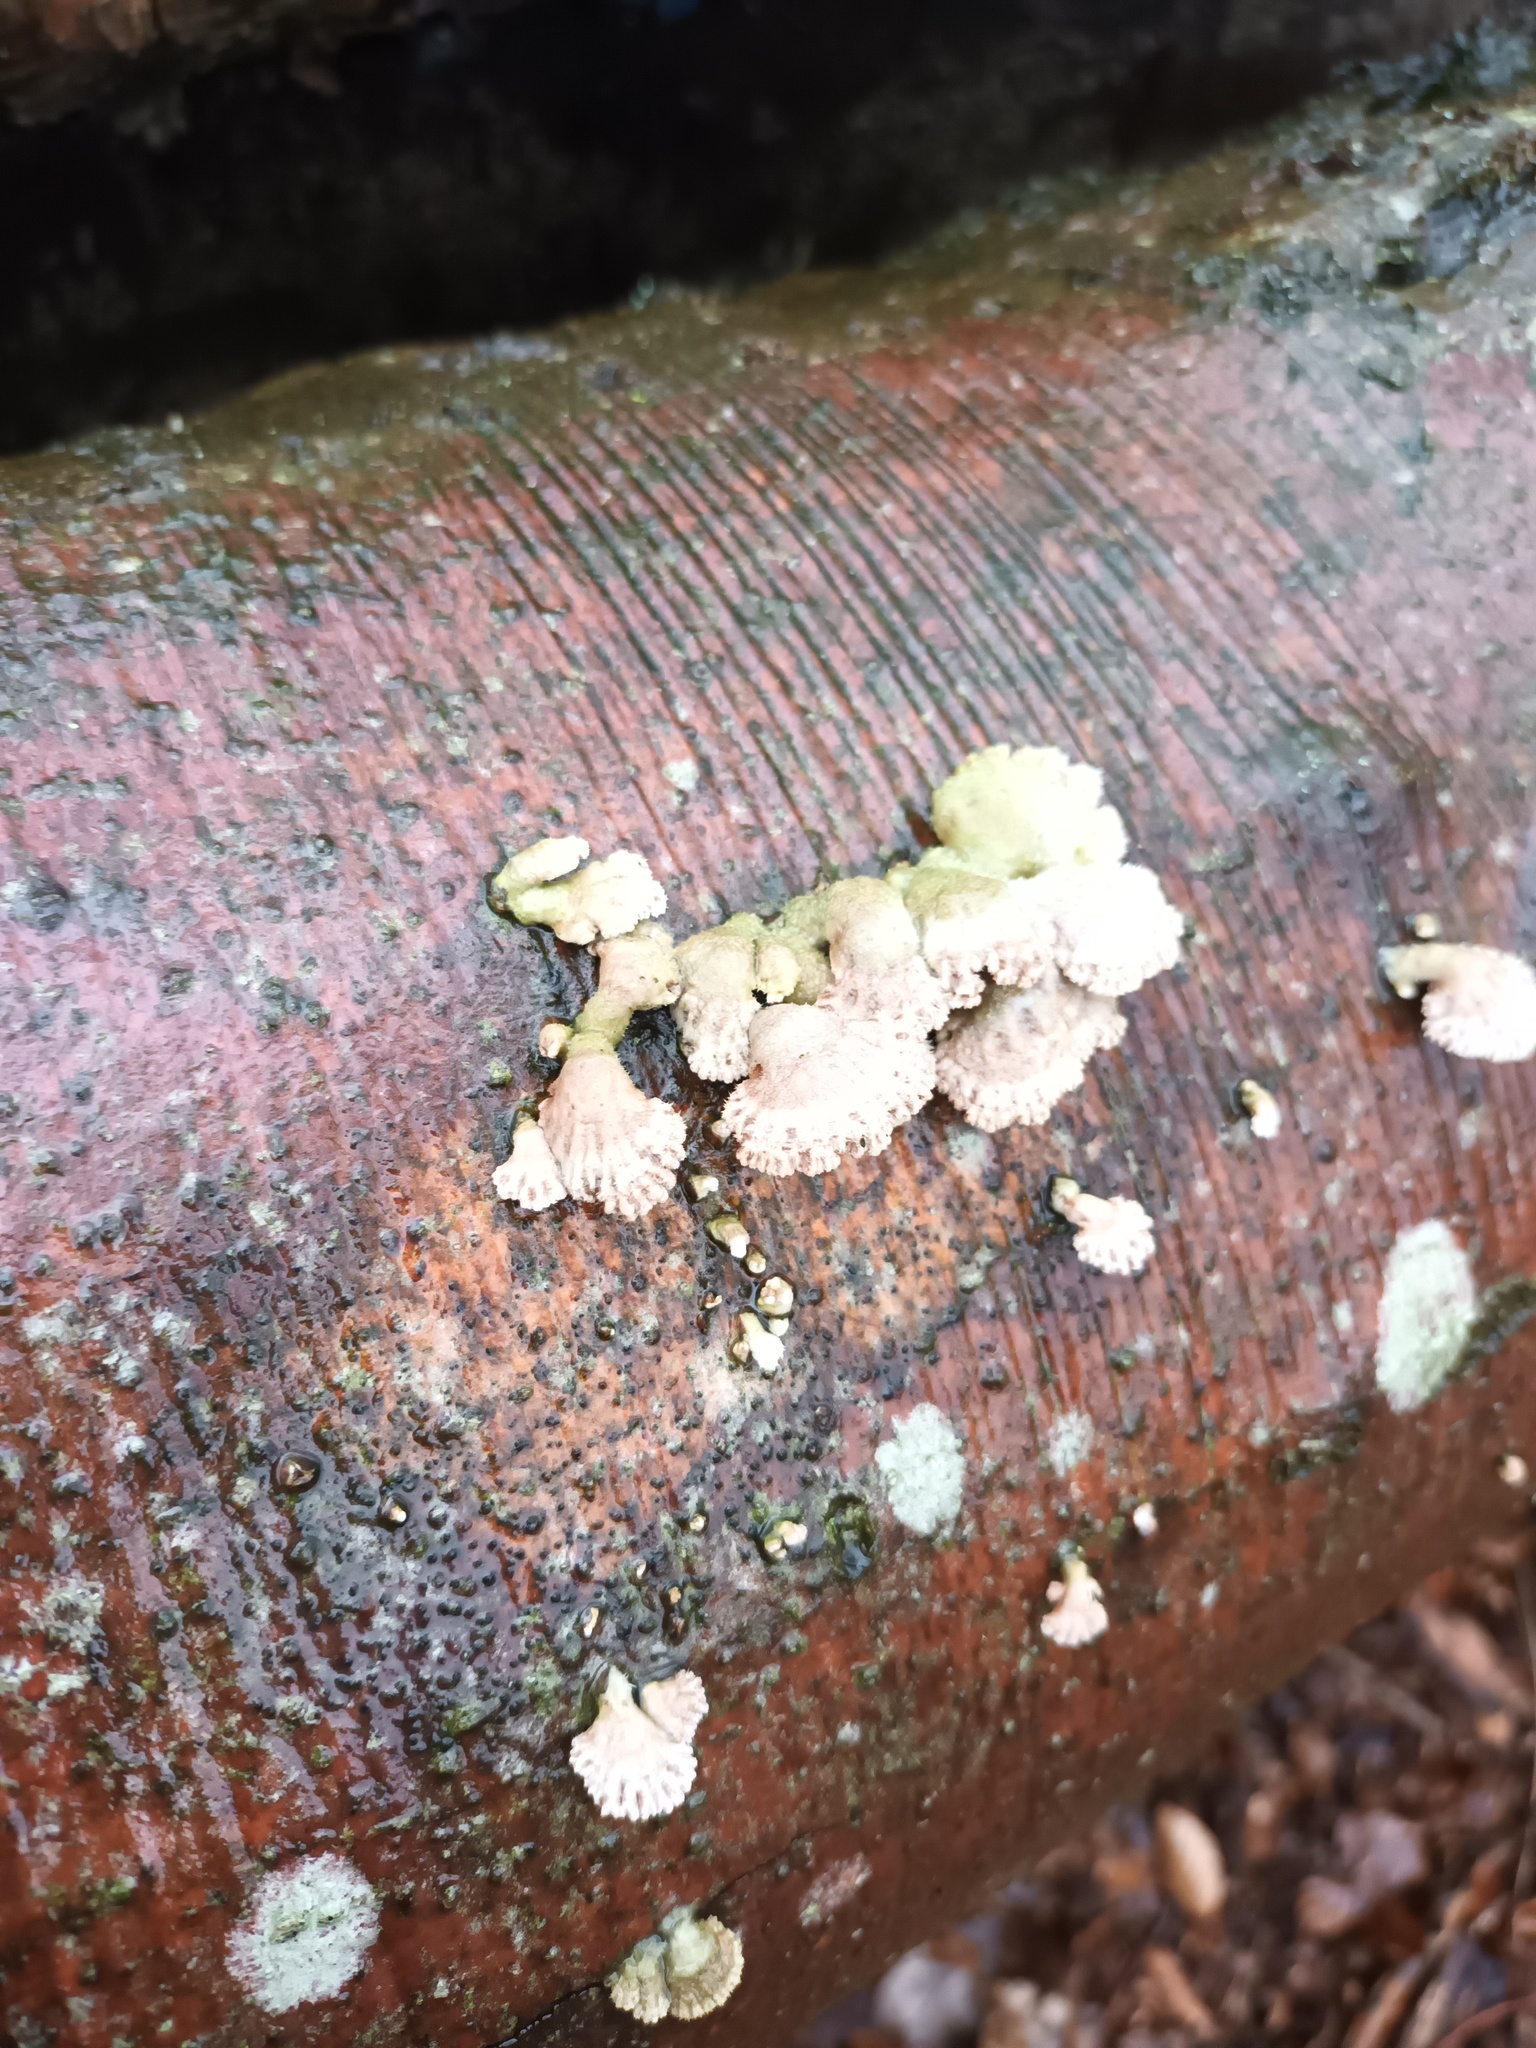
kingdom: Fungi
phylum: Basidiomycota
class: Agaricomycetes
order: Agaricales
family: Schizophyllaceae
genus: Schizophyllum
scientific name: Schizophyllum commune
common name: Common porecrust
